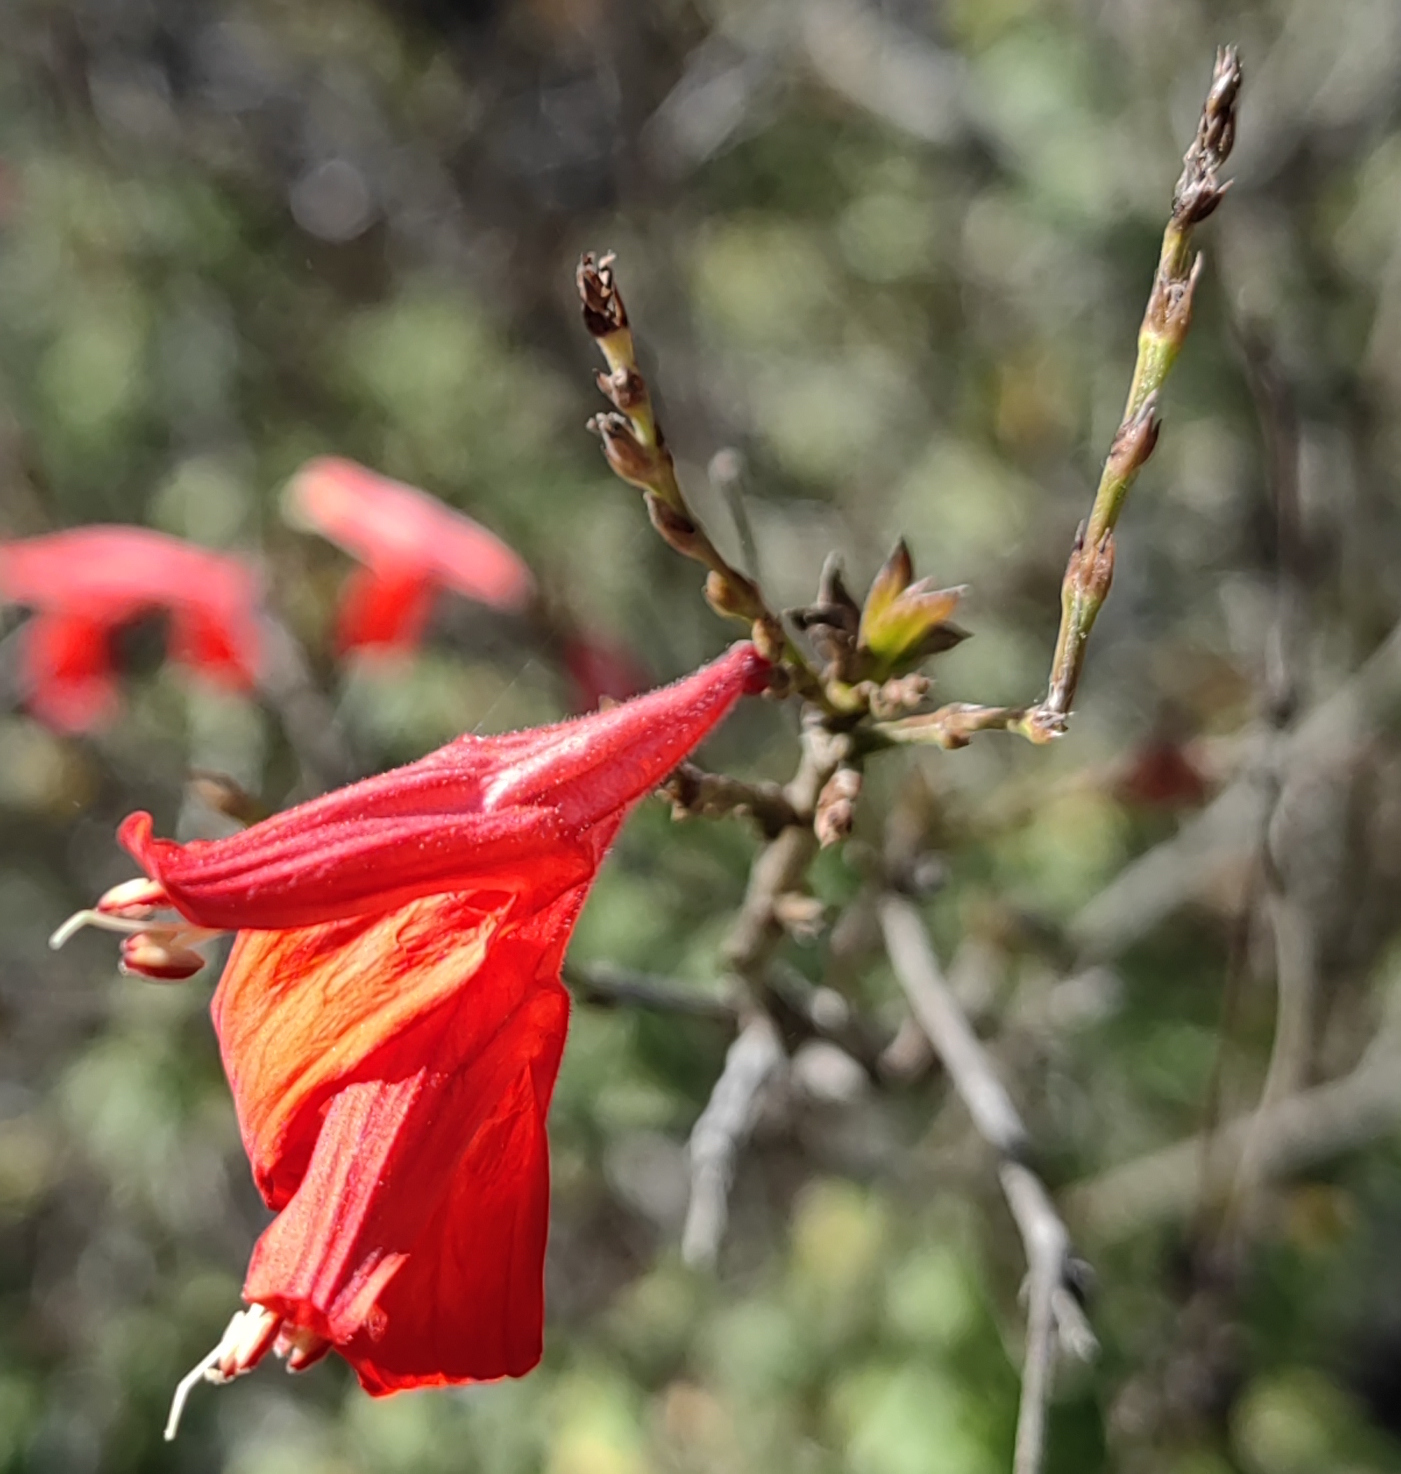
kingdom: Plantae
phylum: Tracheophyta
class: Magnoliopsida
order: Lamiales
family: Acanthaceae
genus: Justicia
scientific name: Justicia oaxacana
